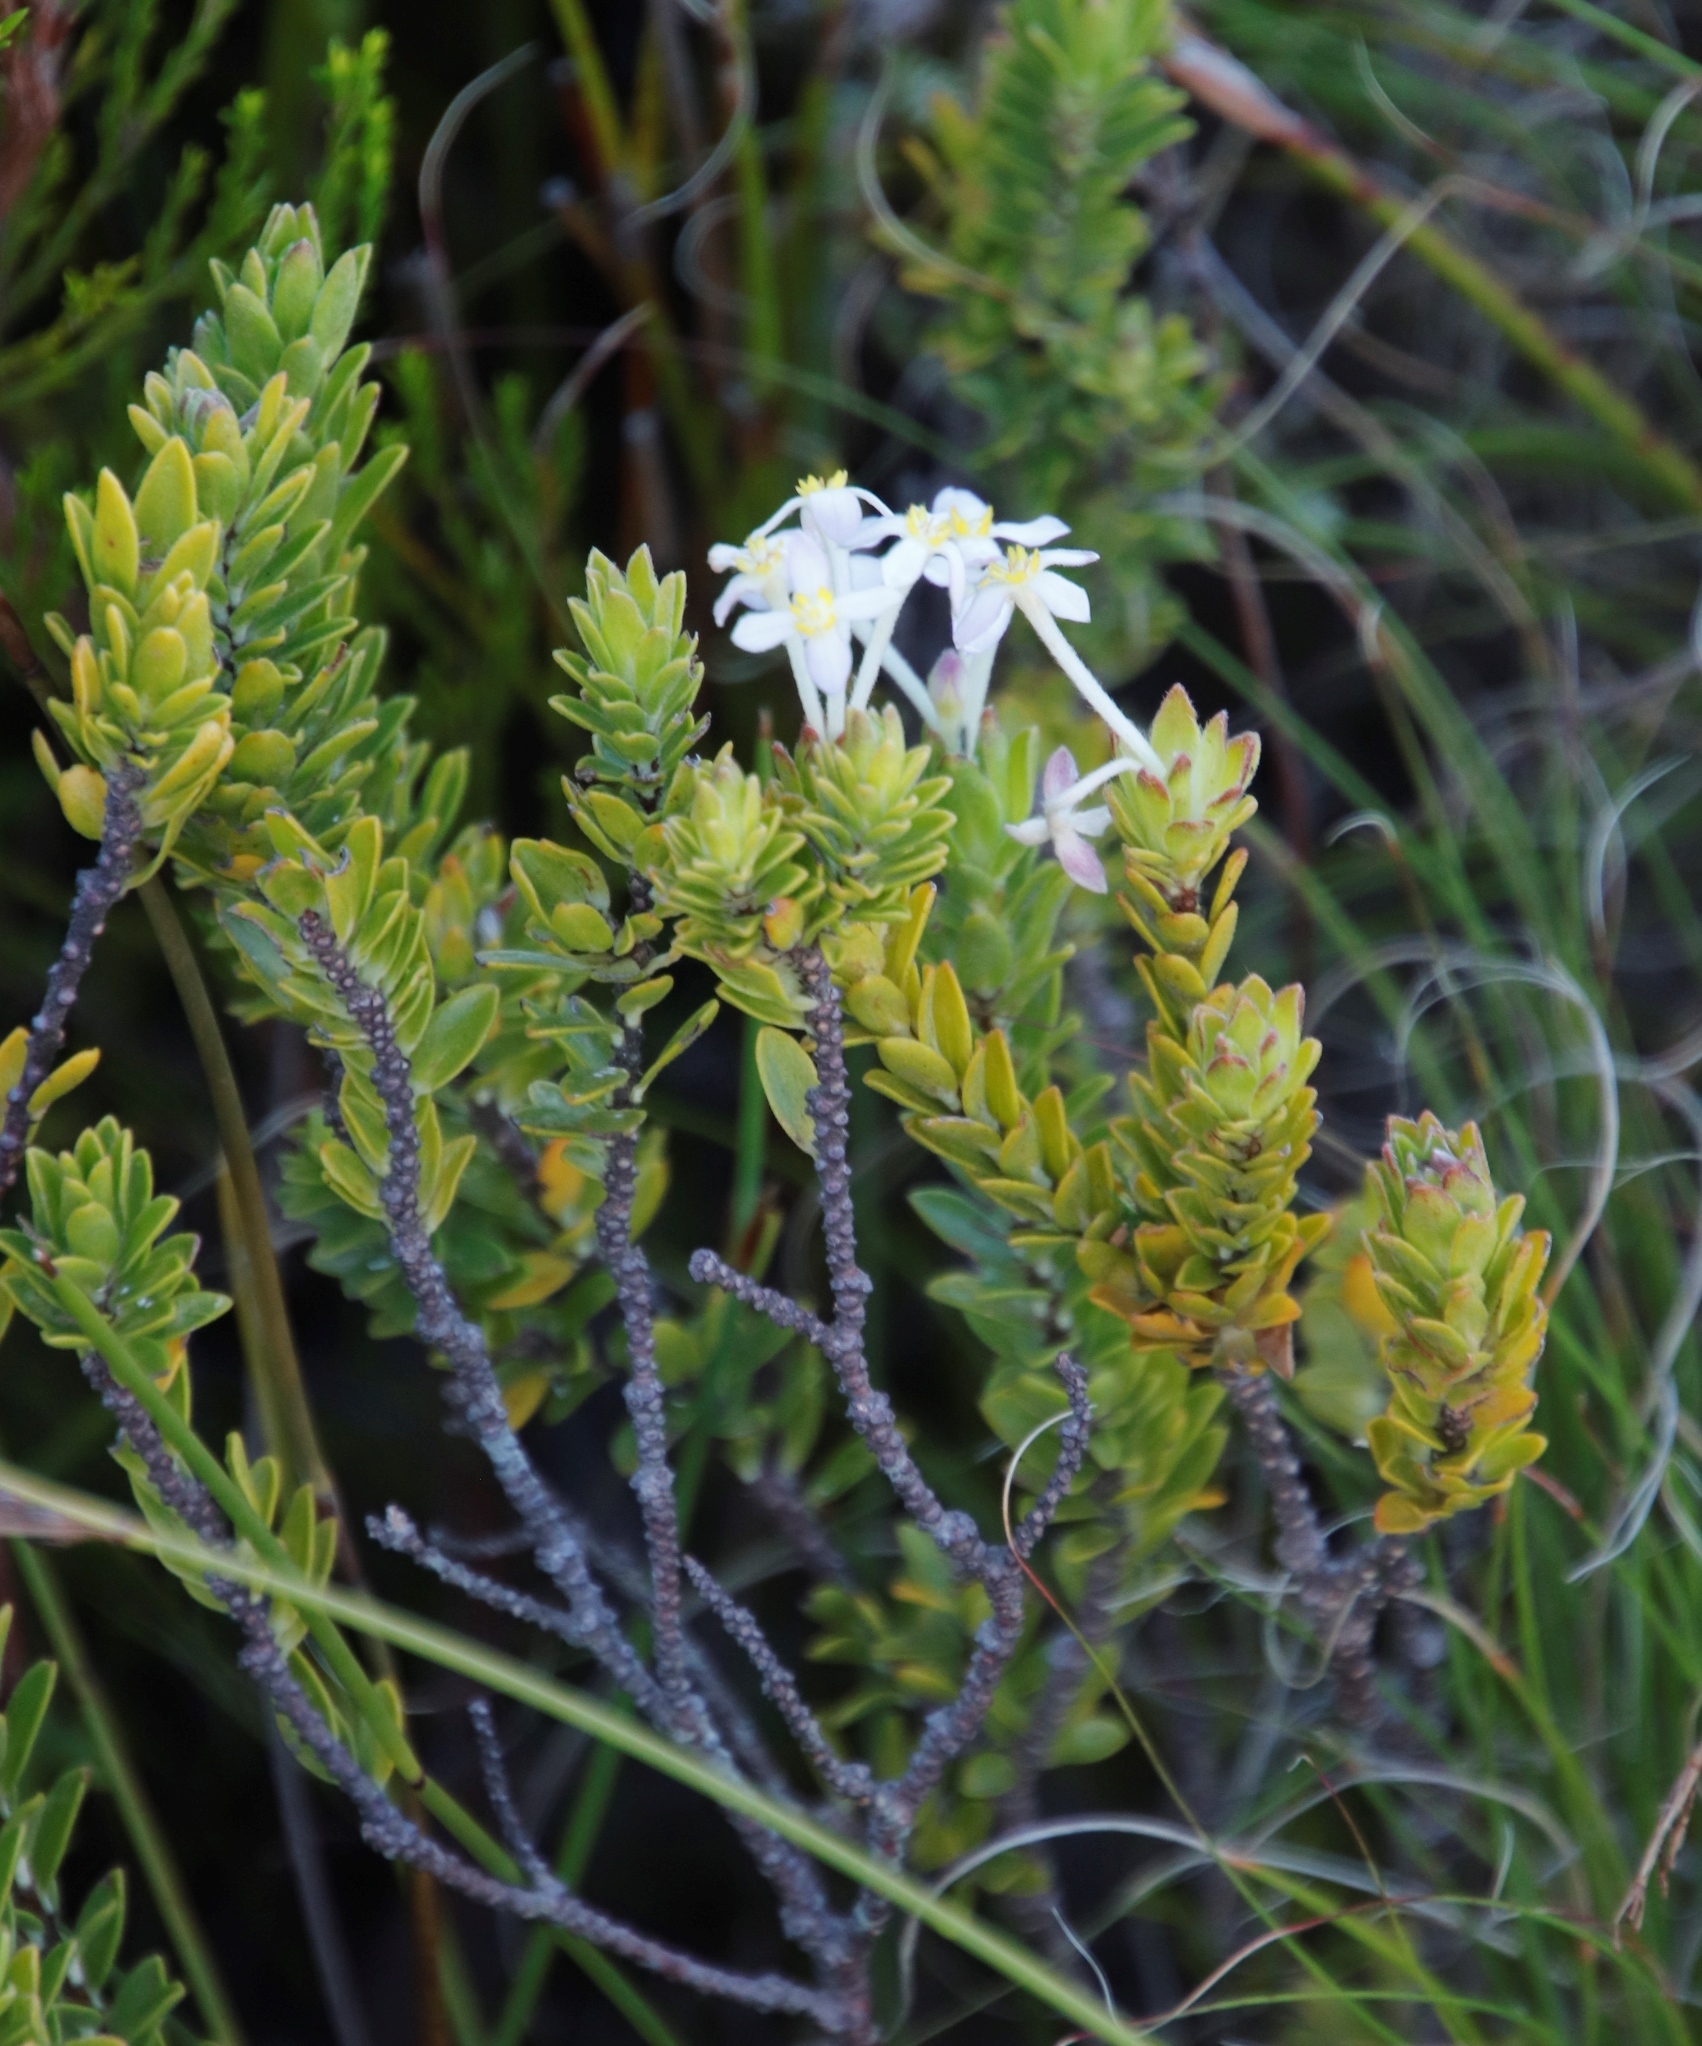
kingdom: Plantae
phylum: Tracheophyta
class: Magnoliopsida
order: Malvales
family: Thymelaeaceae
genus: Gnidia
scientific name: Gnidia tomentosa
